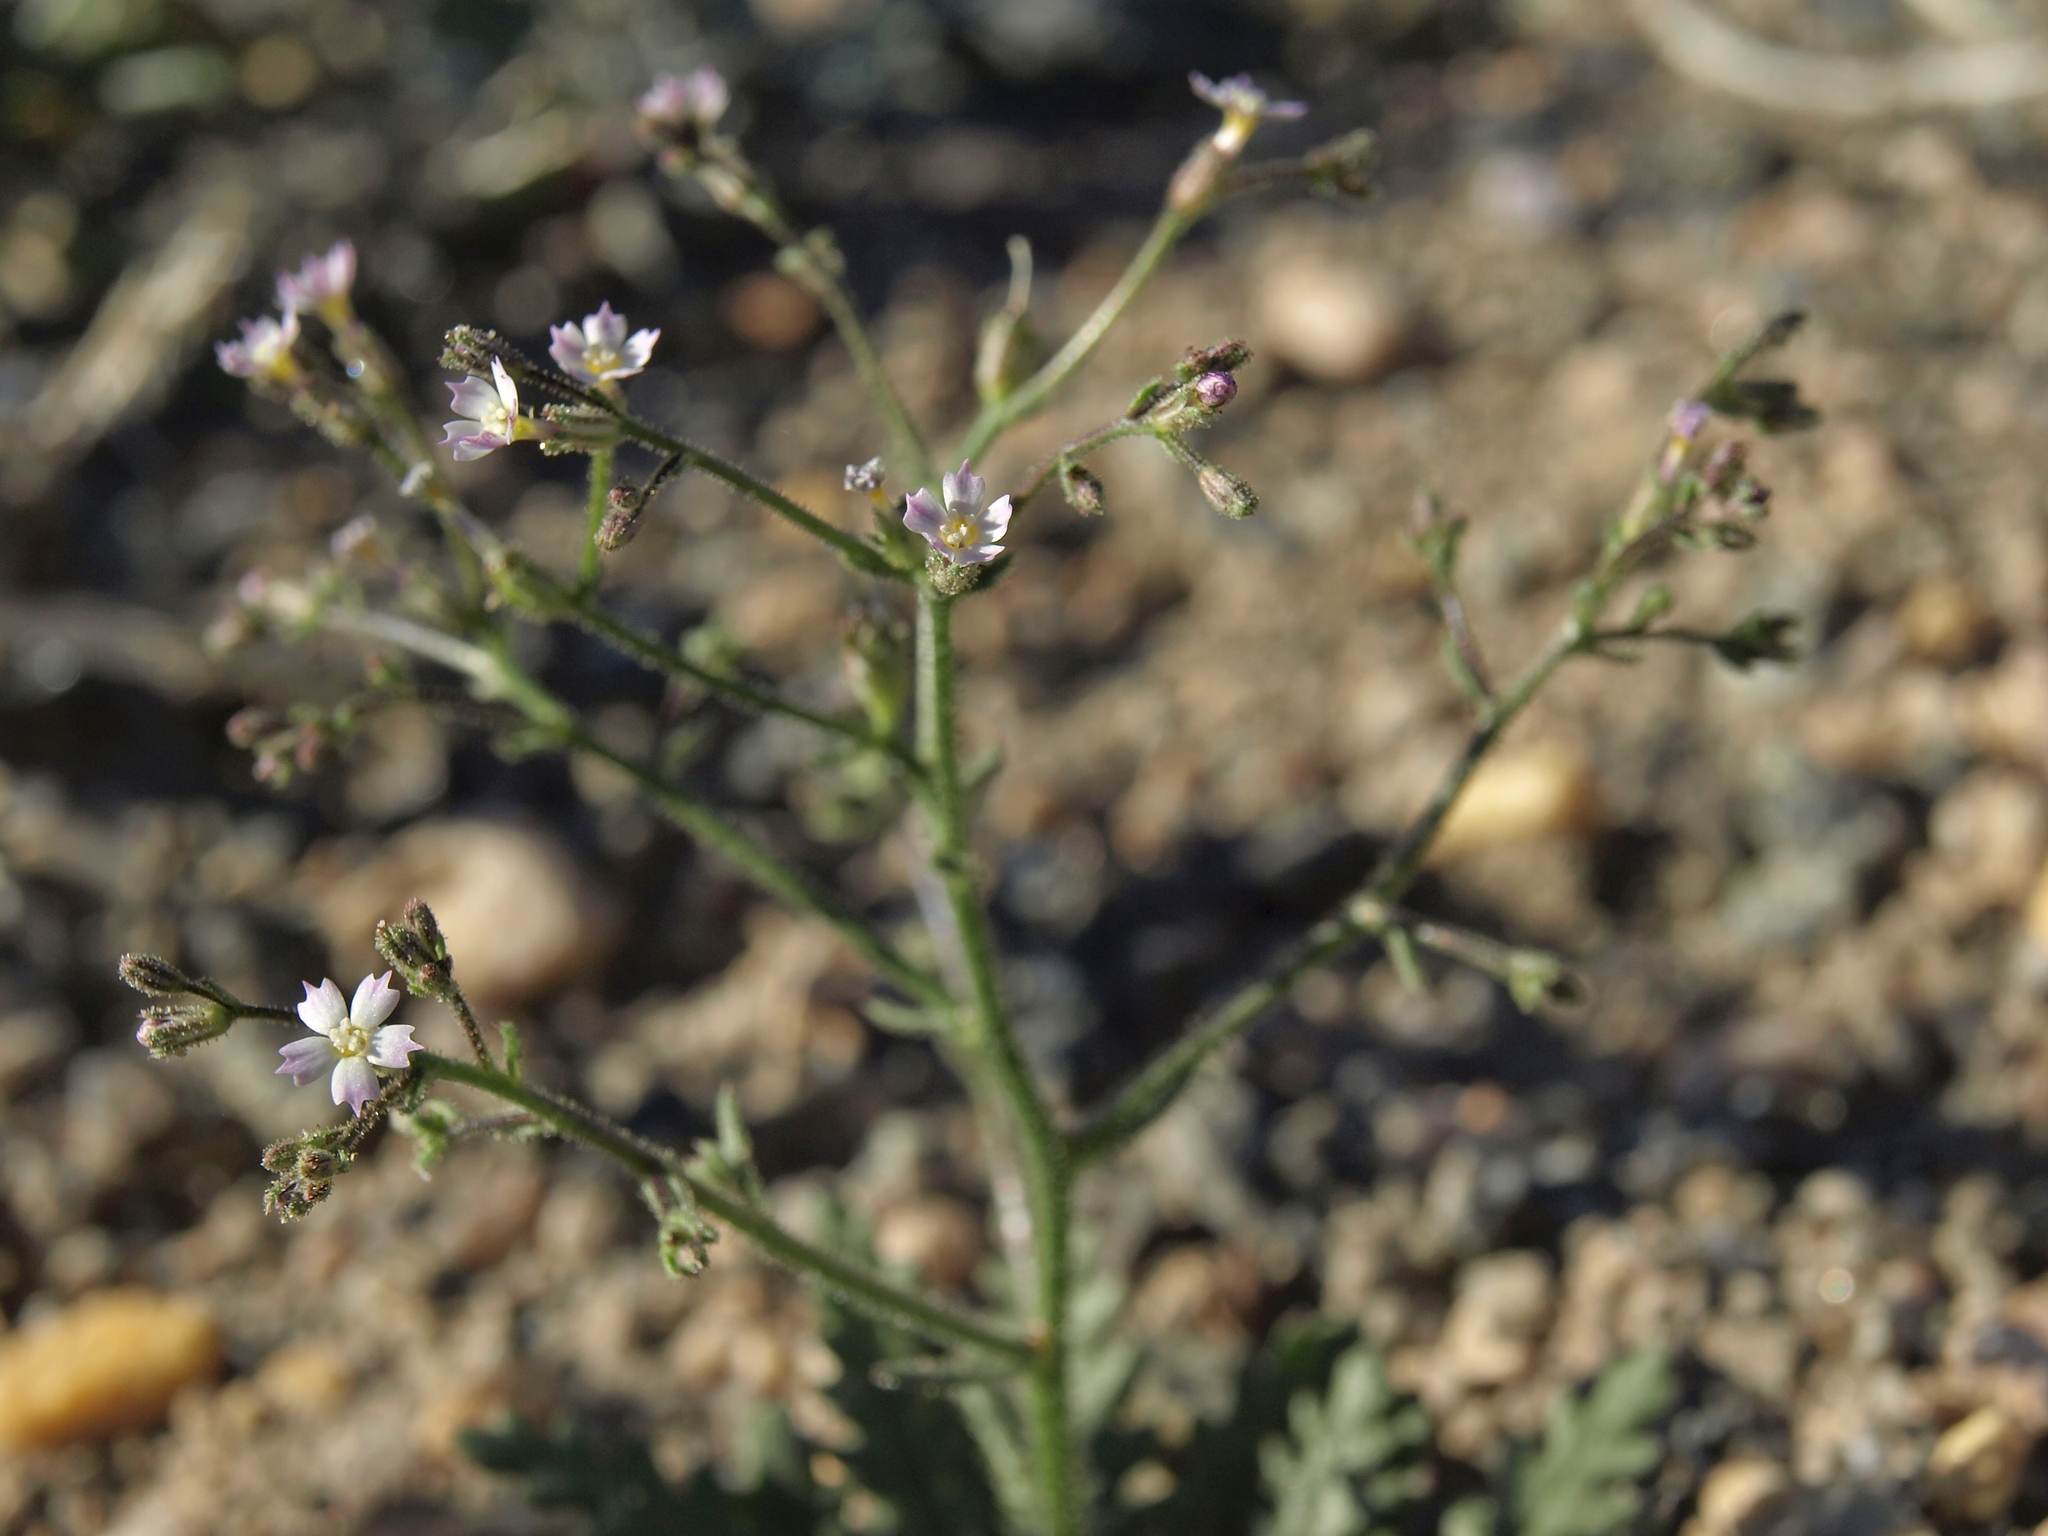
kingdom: Plantae
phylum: Tracheophyta
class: Magnoliopsida
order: Ericales
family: Polemoniaceae
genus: Aliciella
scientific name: Aliciella leptomeria
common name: Sand gilia
